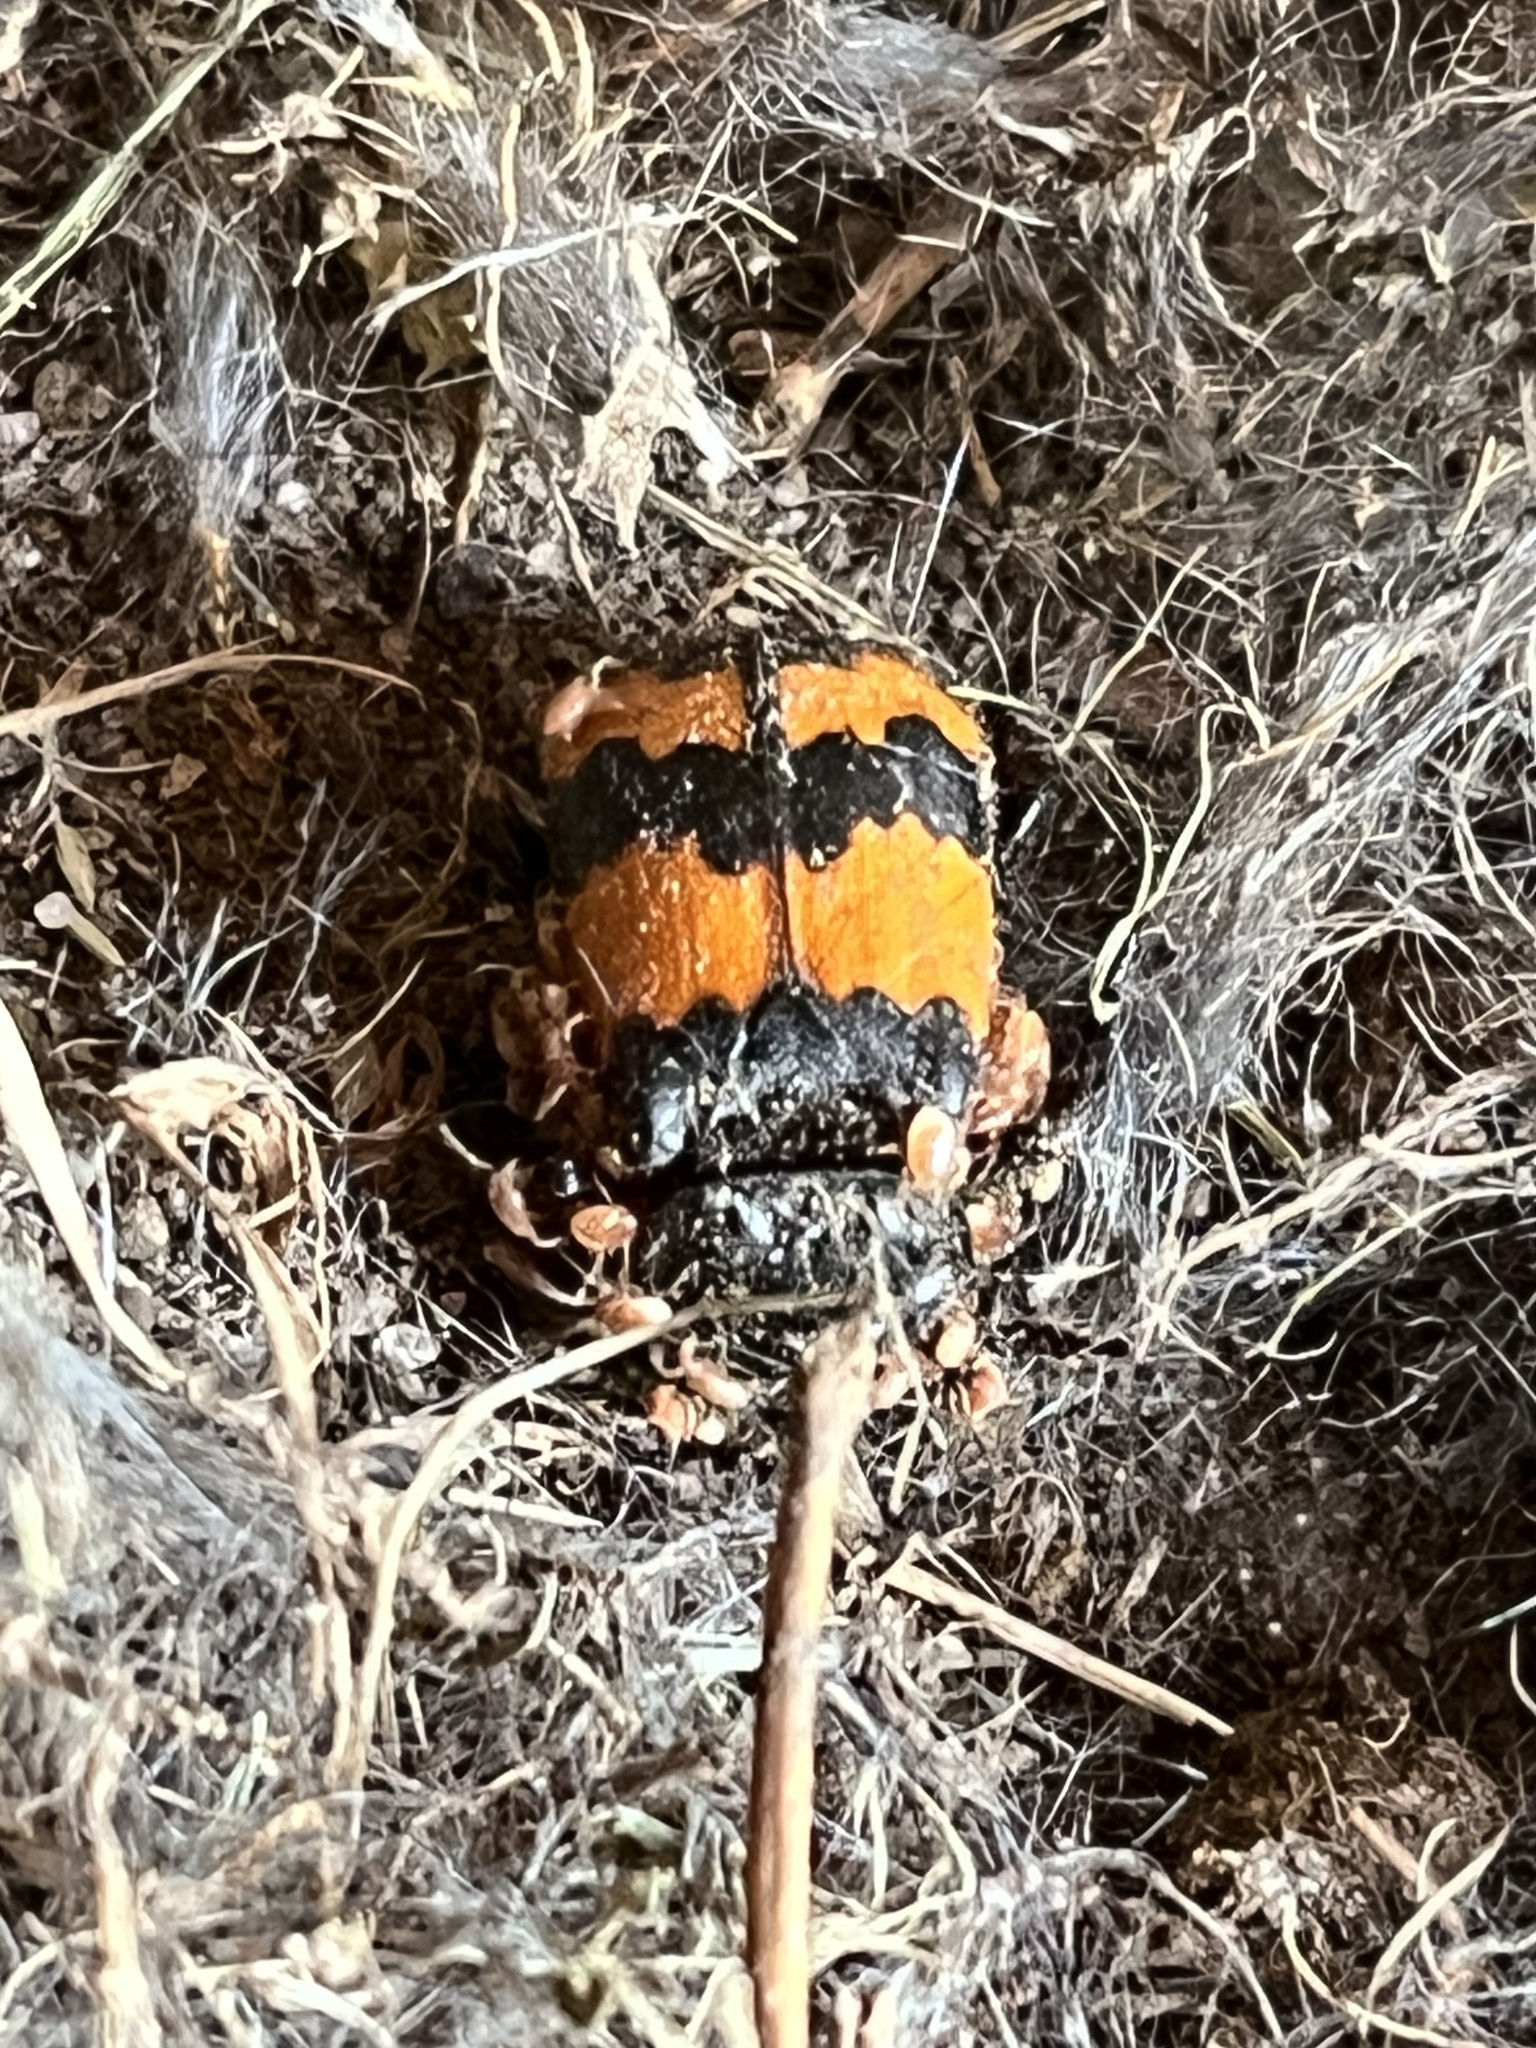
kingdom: Animalia
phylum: Arthropoda
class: Insecta
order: Coleoptera
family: Staphylinidae
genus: Nicrophorus
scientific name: Nicrophorus investigator
